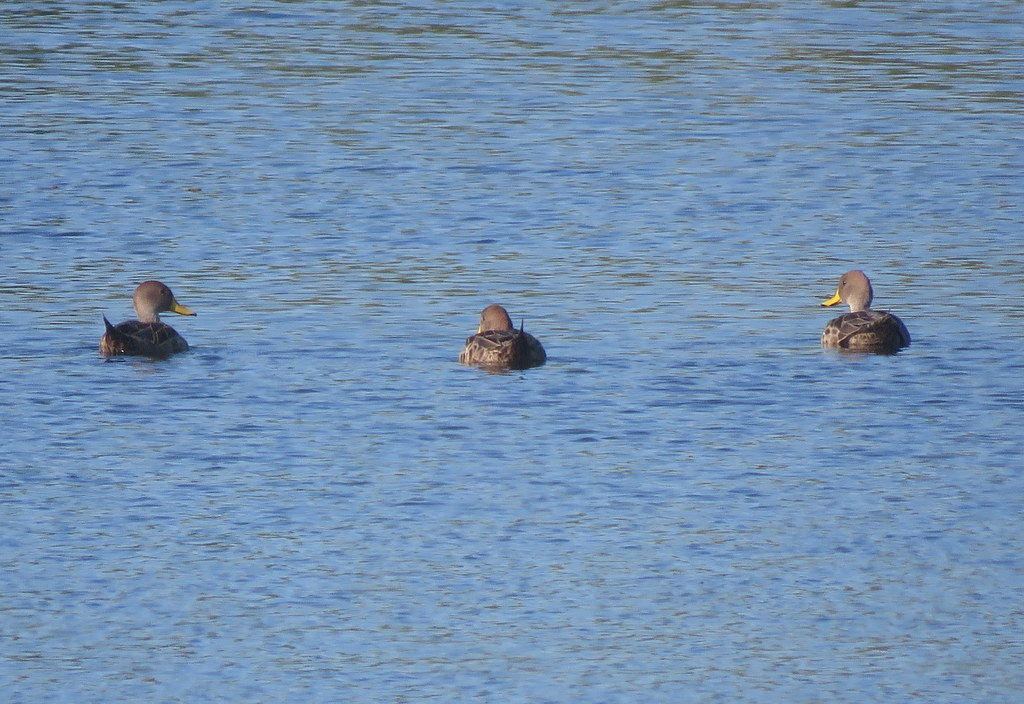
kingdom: Animalia
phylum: Chordata
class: Aves
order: Anseriformes
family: Anatidae
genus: Anas
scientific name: Anas georgica
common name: Yellow-billed pintail
